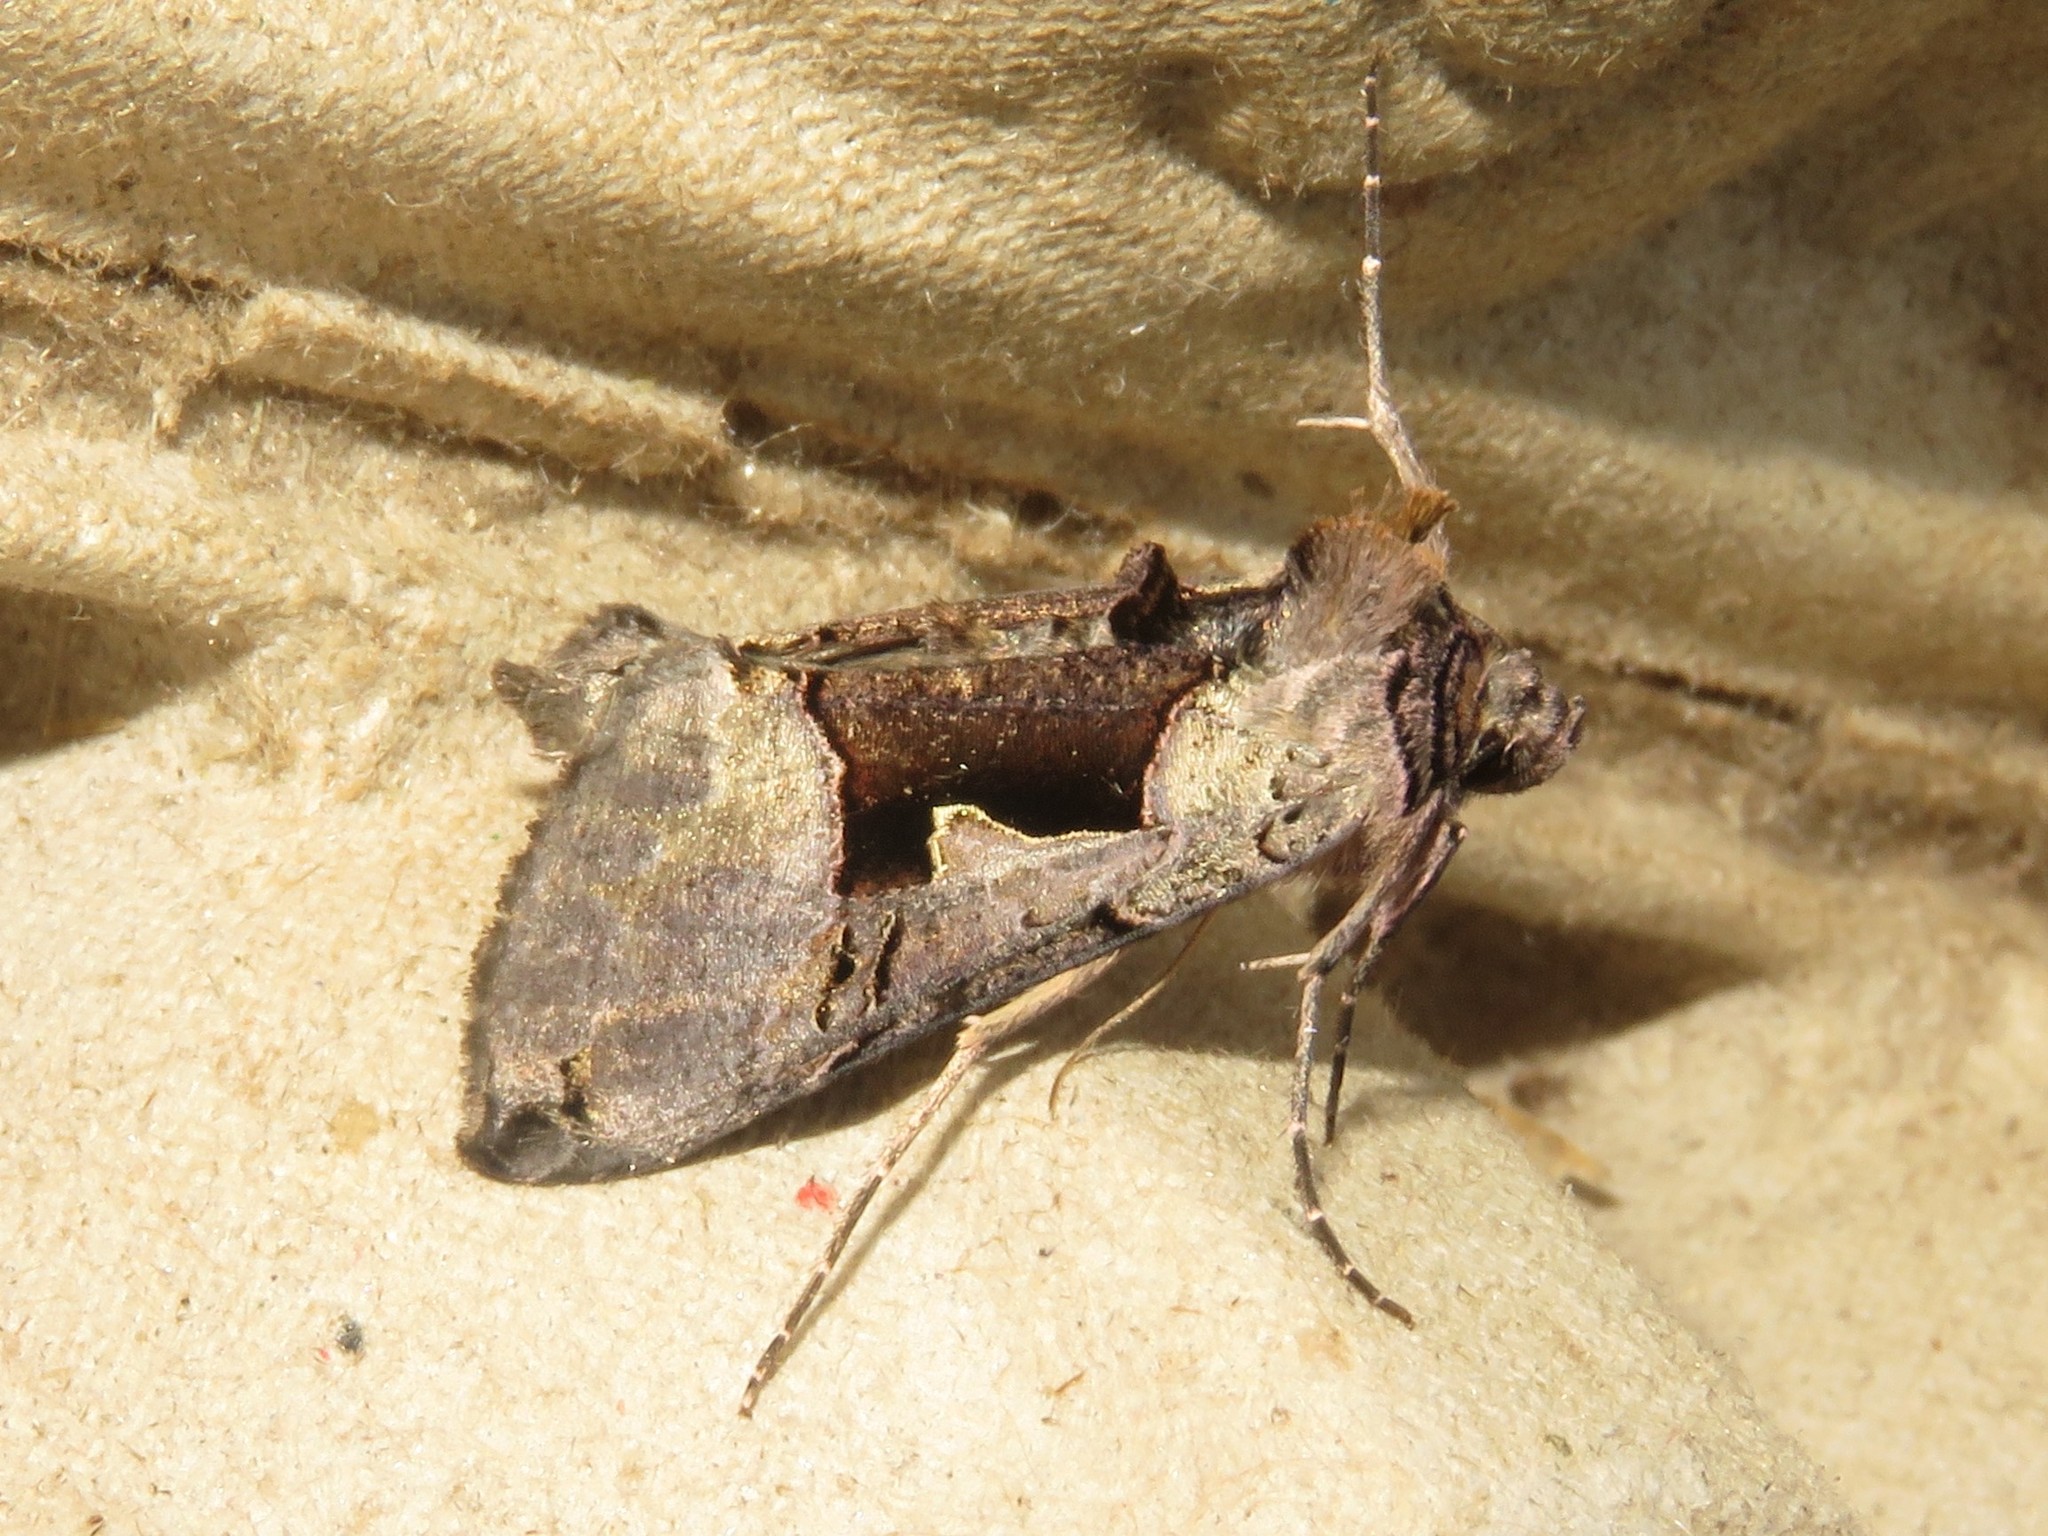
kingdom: Animalia
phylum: Arthropoda
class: Insecta
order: Lepidoptera
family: Noctuidae
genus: Autographa
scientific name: Autographa ampla
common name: Large looper moth
